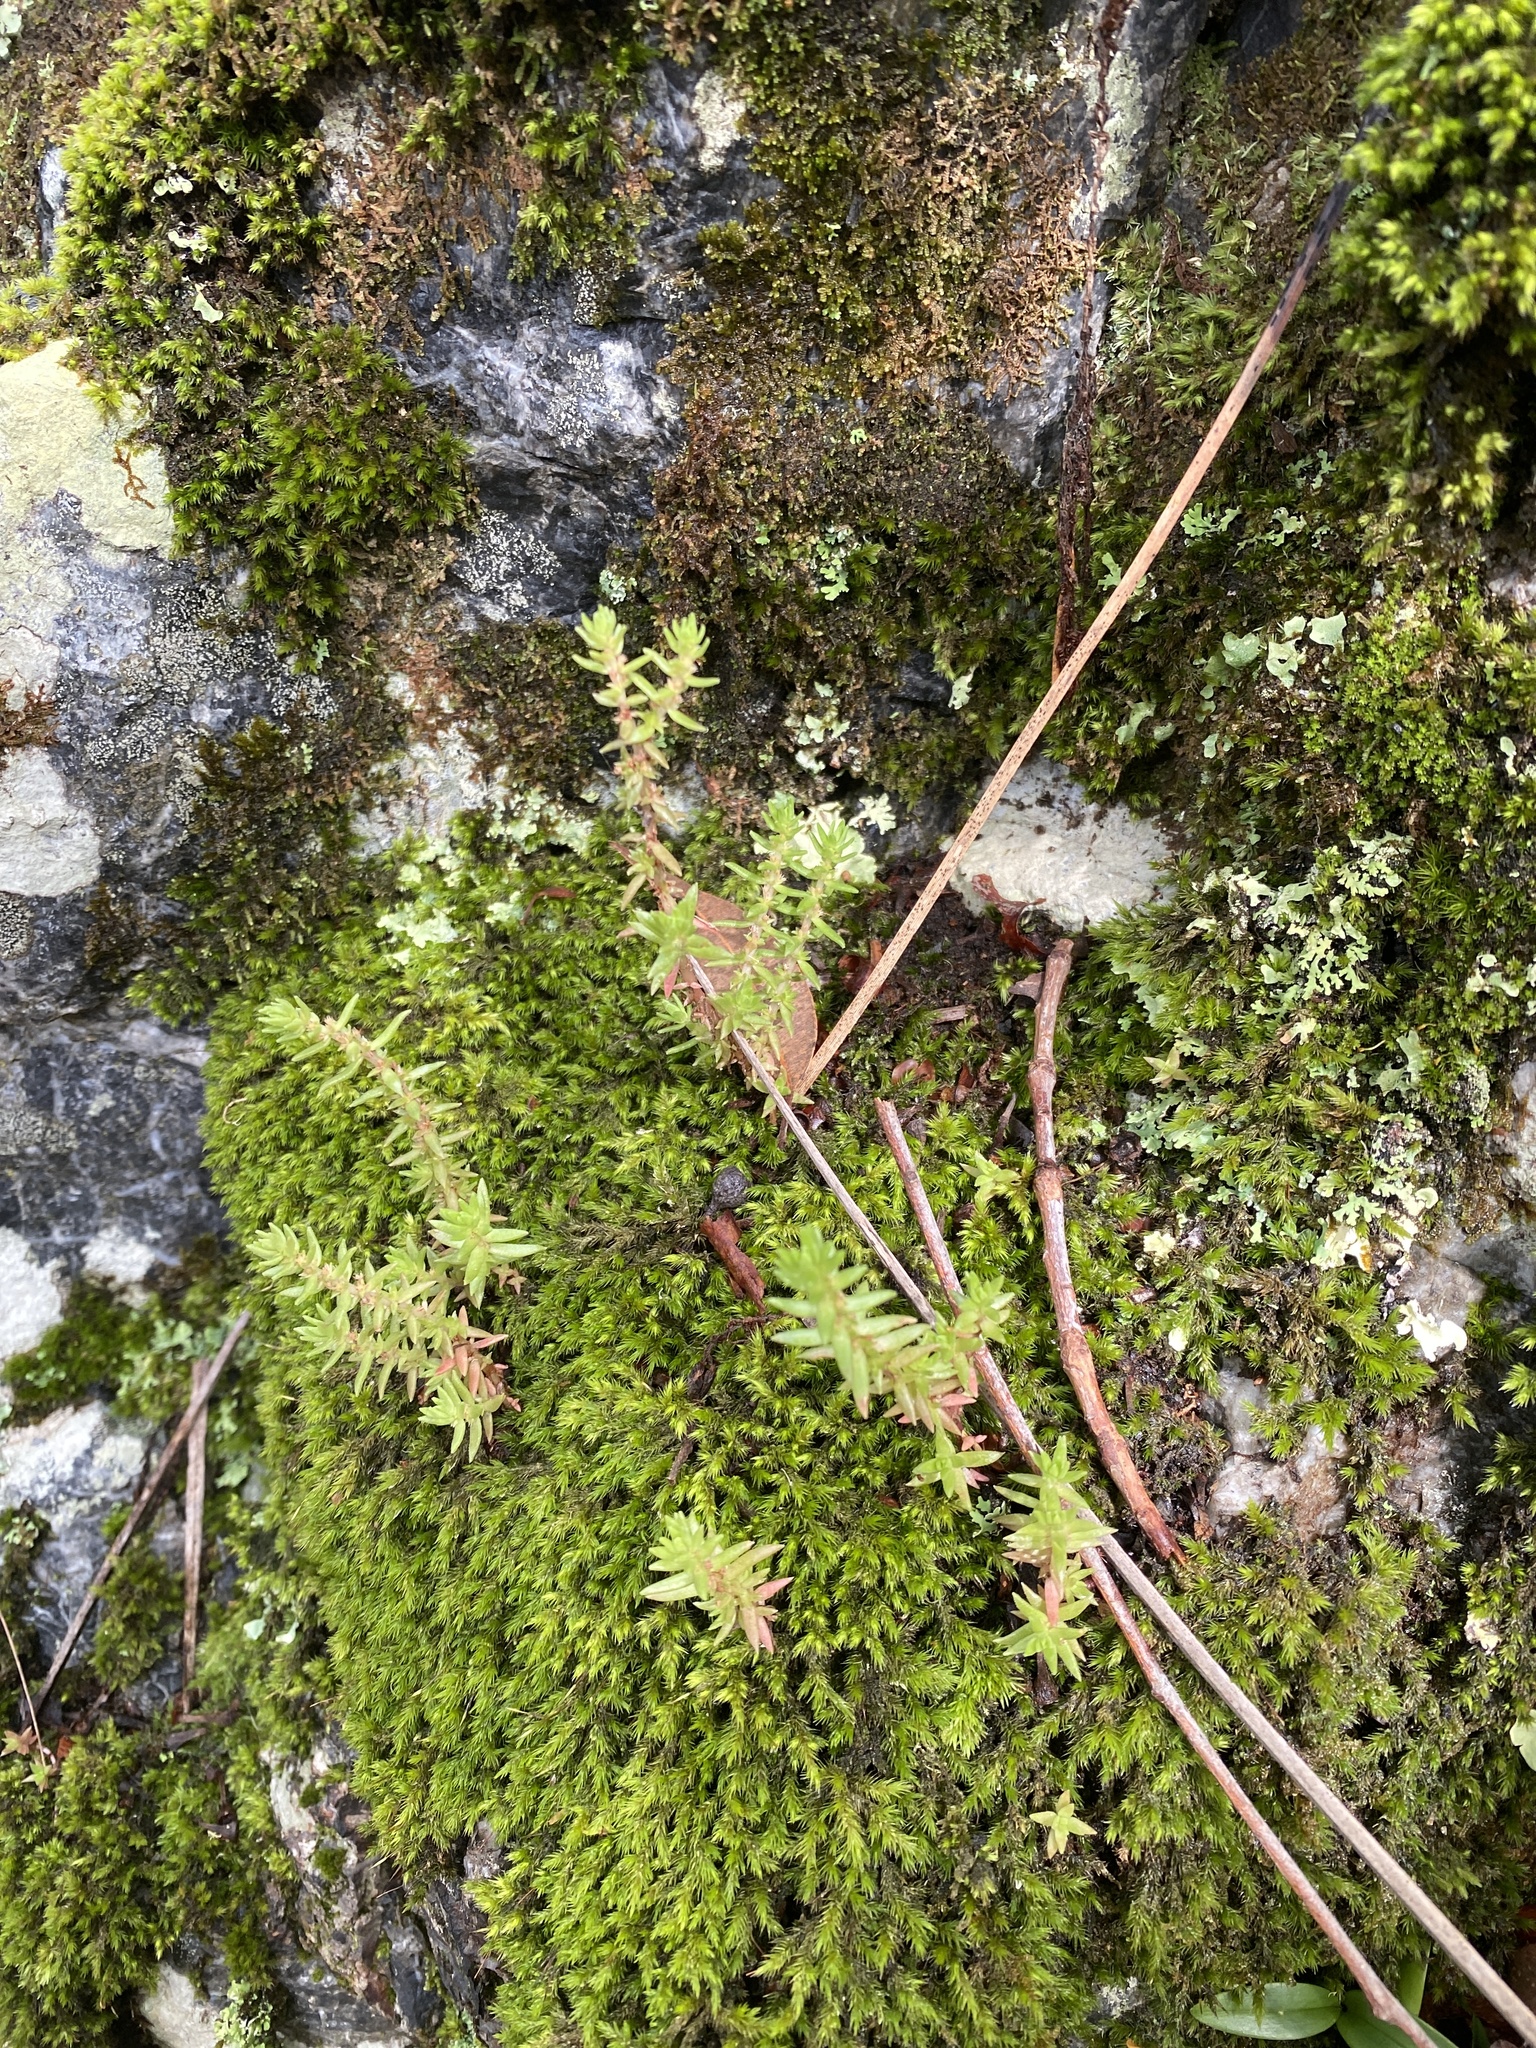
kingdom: Plantae
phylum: Tracheophyta
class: Magnoliopsida
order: Saxifragales
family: Crassulaceae
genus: Crassula
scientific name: Crassula sieberiana
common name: Siberian pygmyweed
